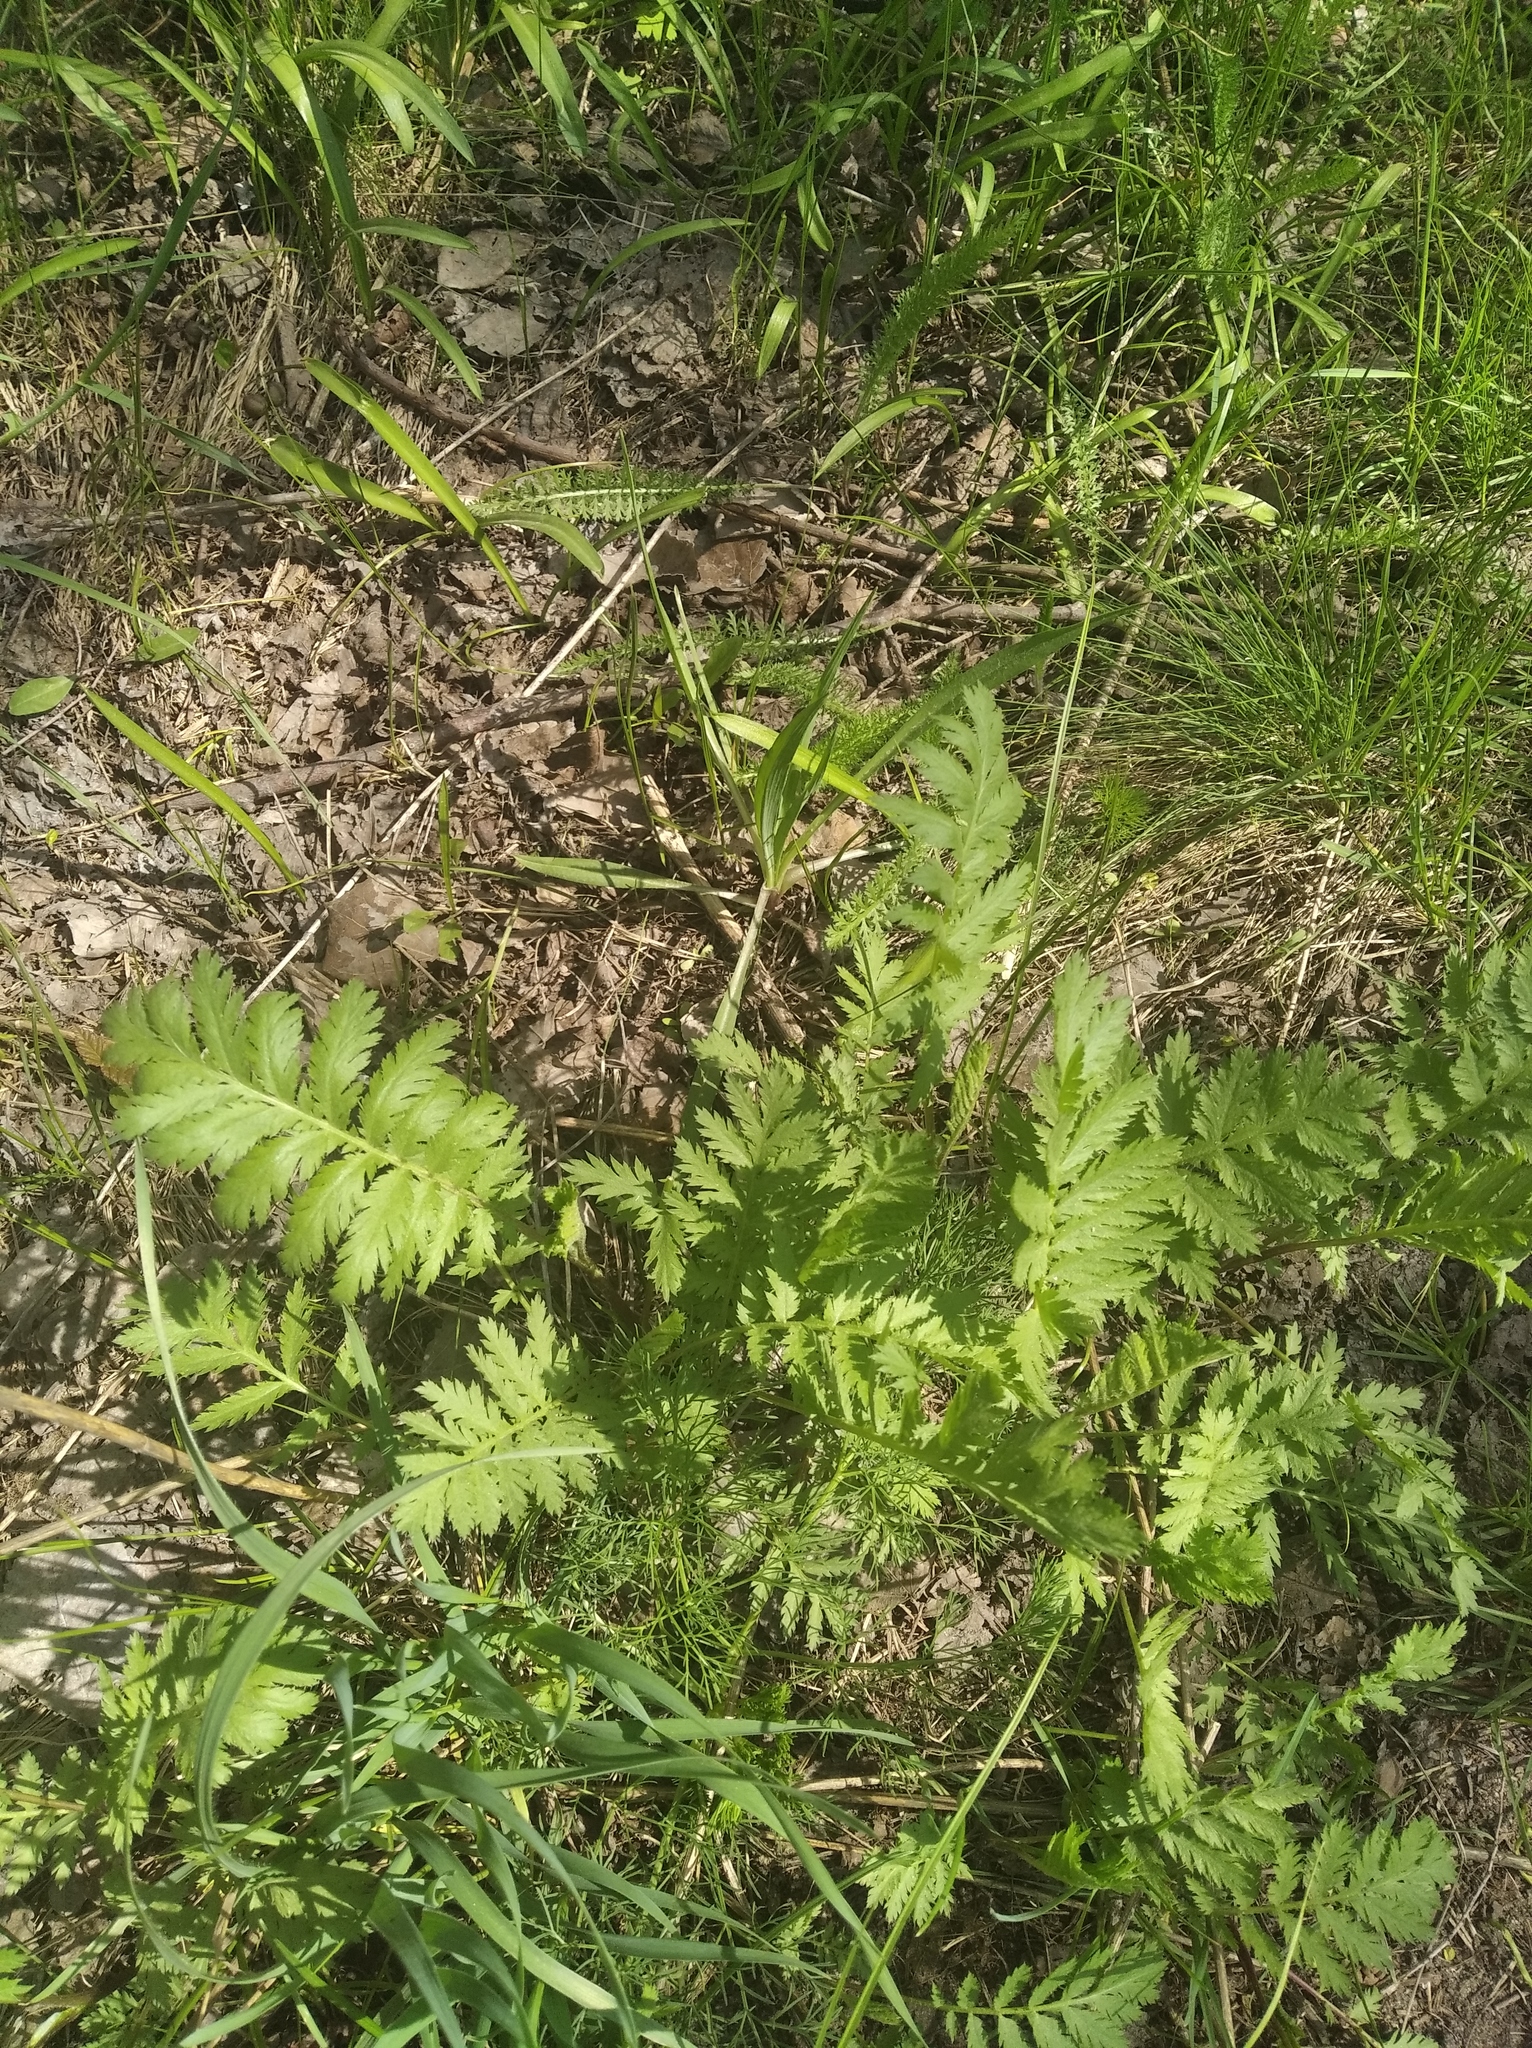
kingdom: Plantae
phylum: Tracheophyta
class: Magnoliopsida
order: Asterales
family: Asteraceae
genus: Tanacetum
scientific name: Tanacetum vulgare
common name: Common tansy
